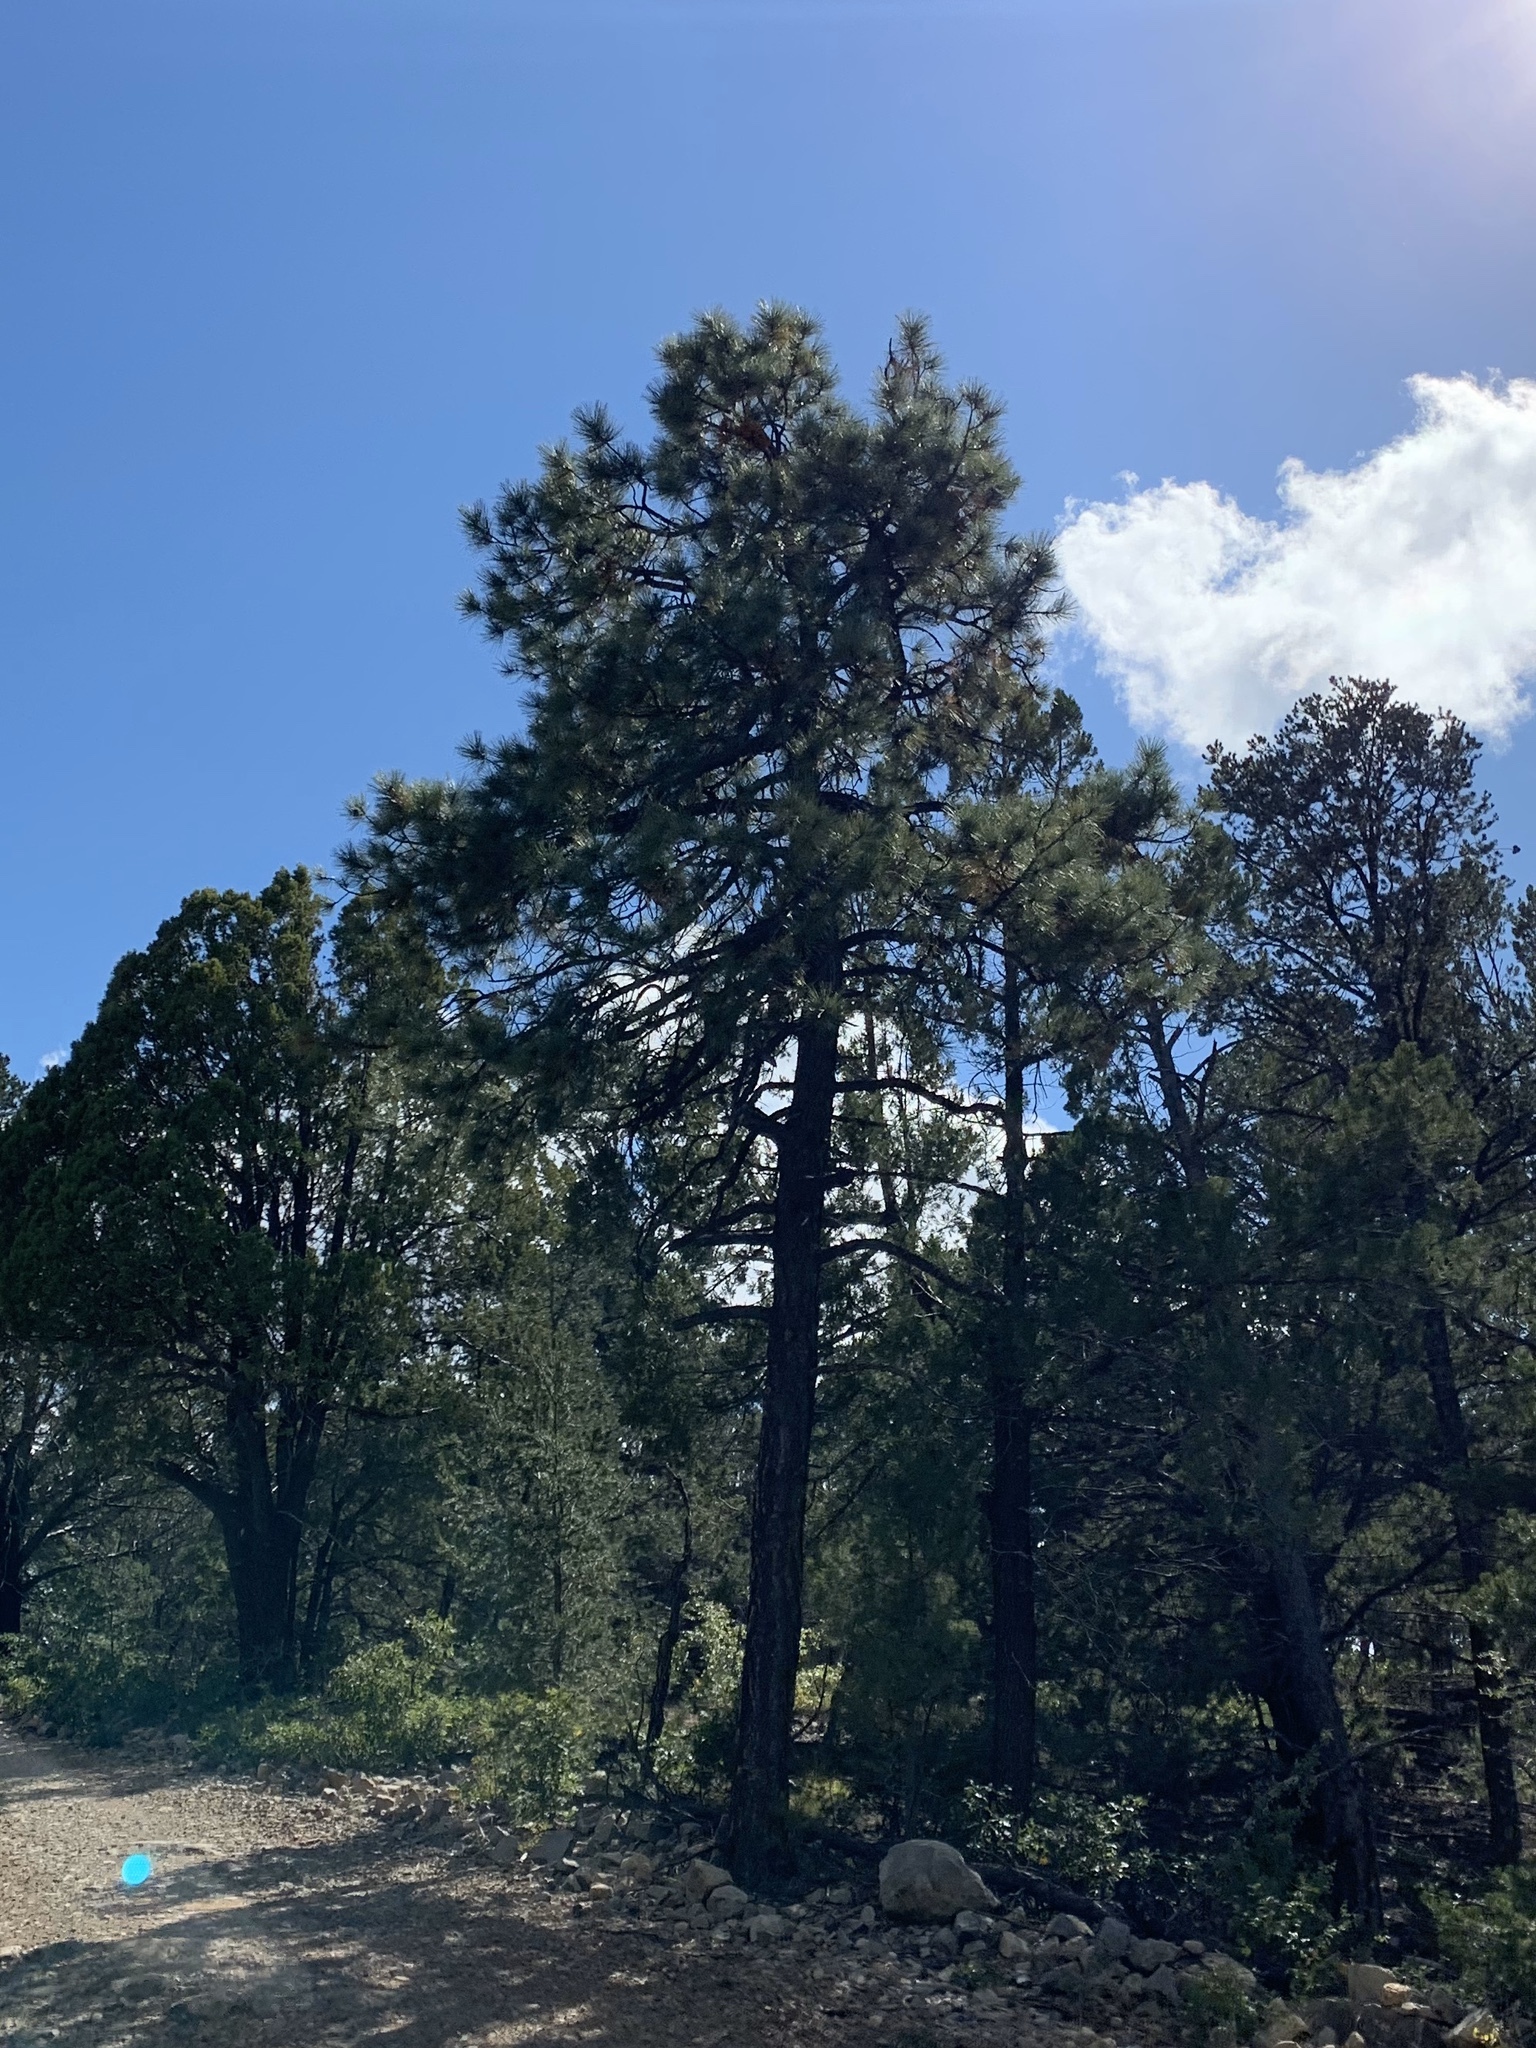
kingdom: Plantae
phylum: Tracheophyta
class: Pinopsida
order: Pinales
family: Pinaceae
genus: Pinus
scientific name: Pinus ponderosa
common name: Western yellow-pine
